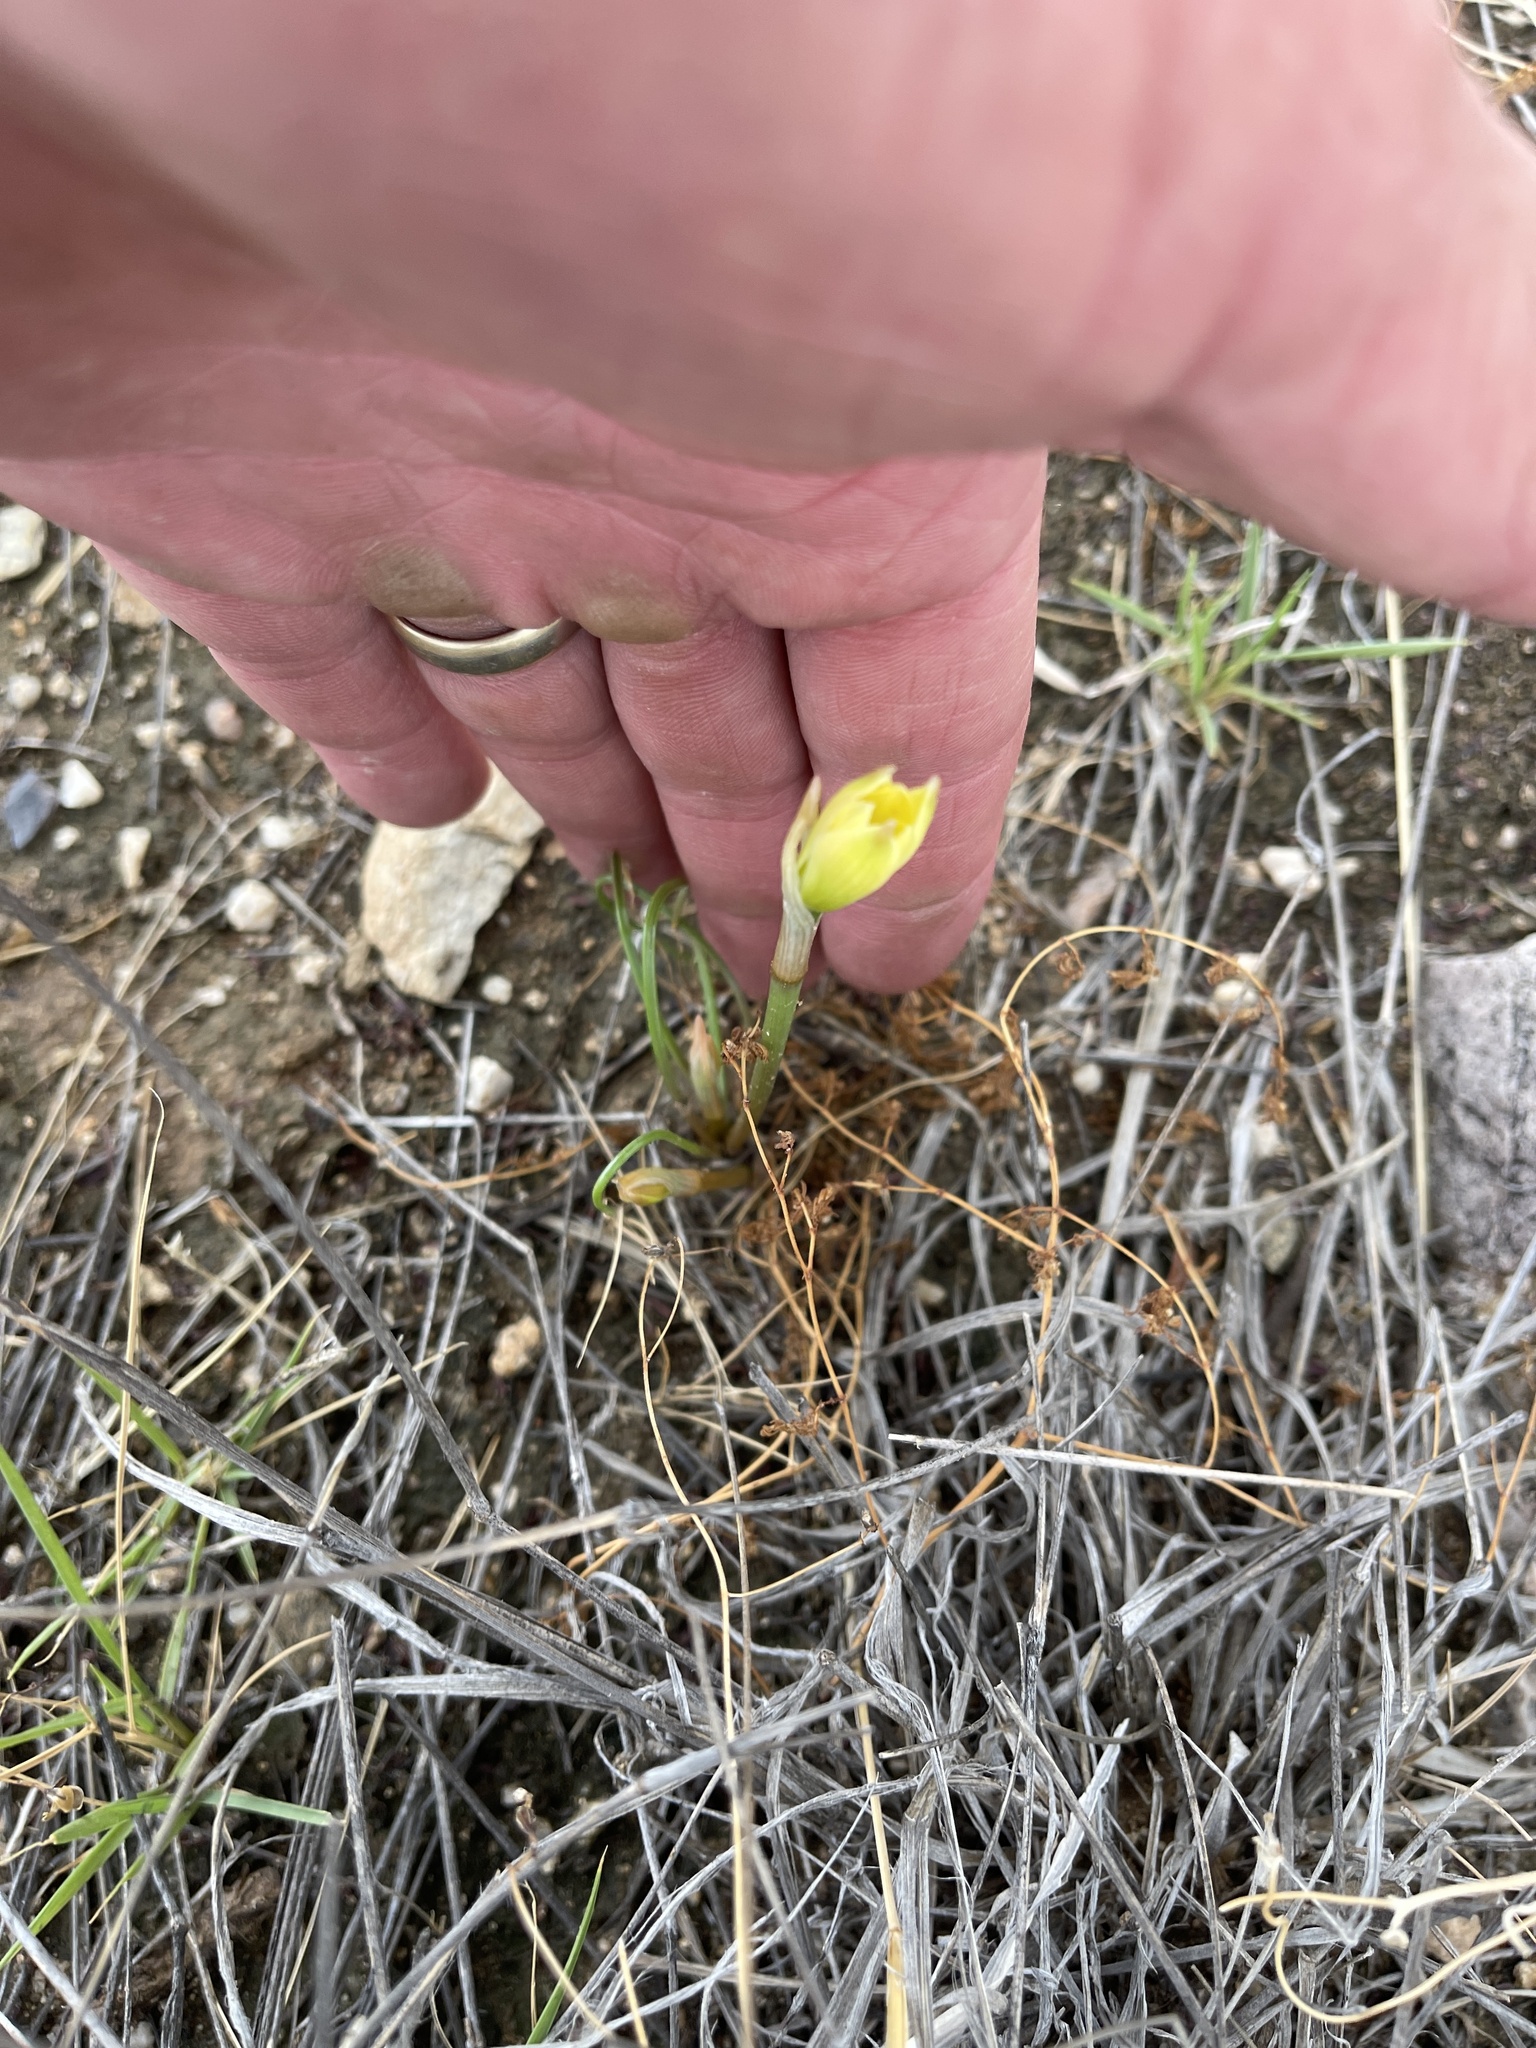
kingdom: Plantae
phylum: Tracheophyta
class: Liliopsida
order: Asparagales
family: Amaryllidaceae
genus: Zephyranthes
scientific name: Zephyranthes longifolia
